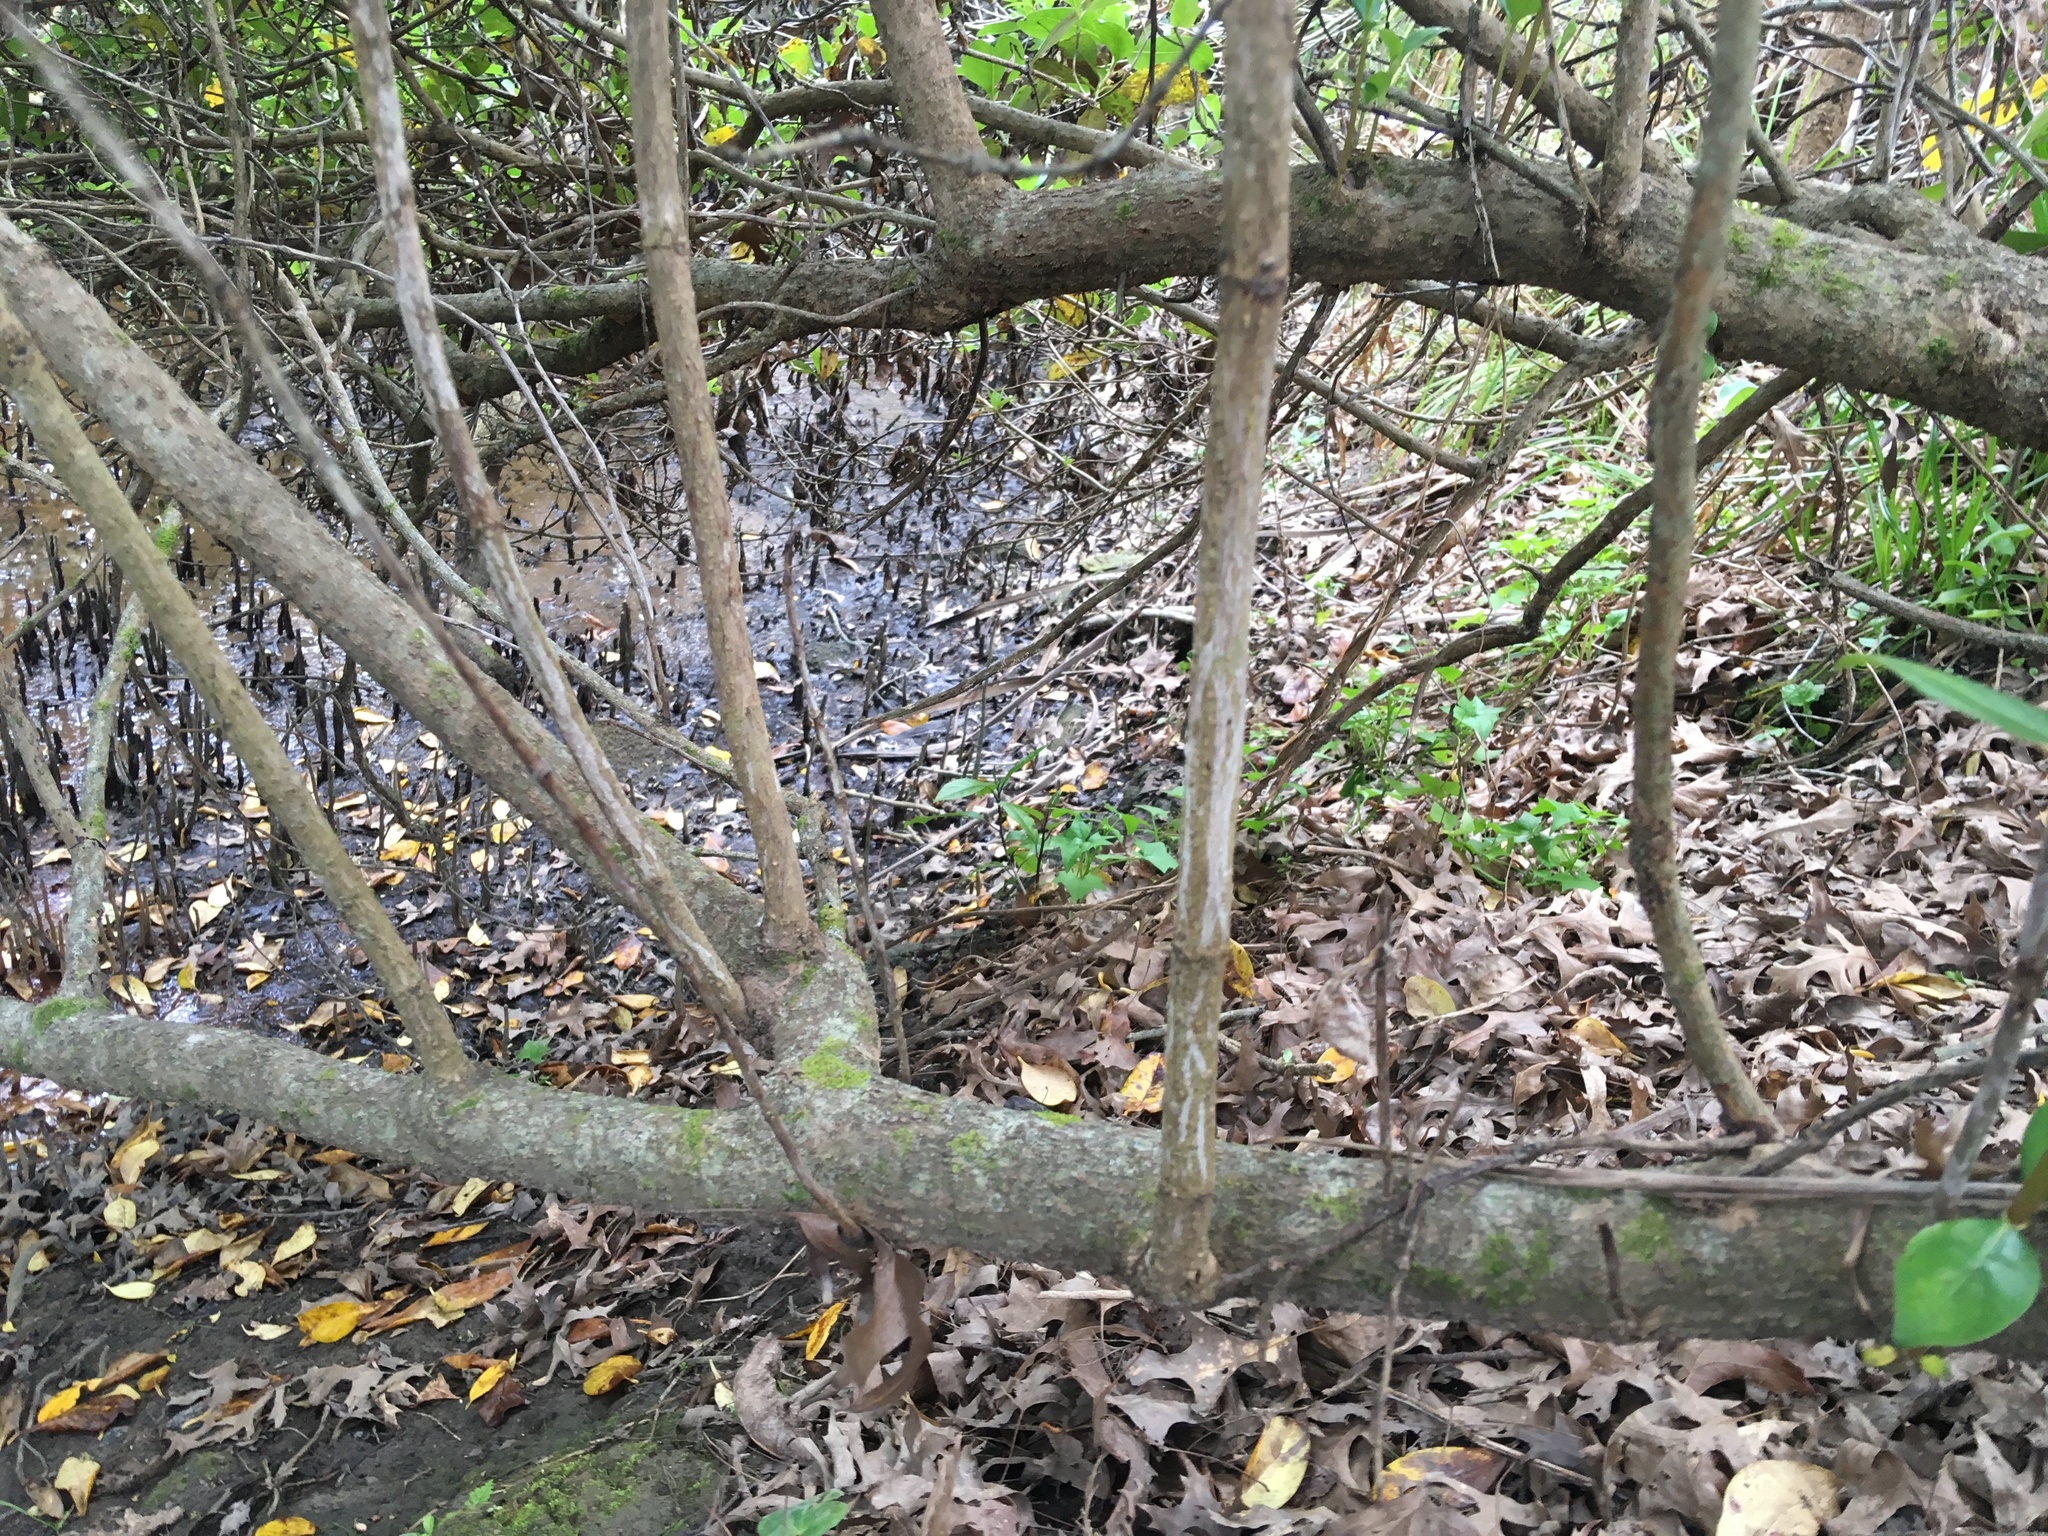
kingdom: Plantae
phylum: Tracheophyta
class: Magnoliopsida
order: Asterales
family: Asteraceae
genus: Delairea
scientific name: Delairea odorata
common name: Cape-ivy
